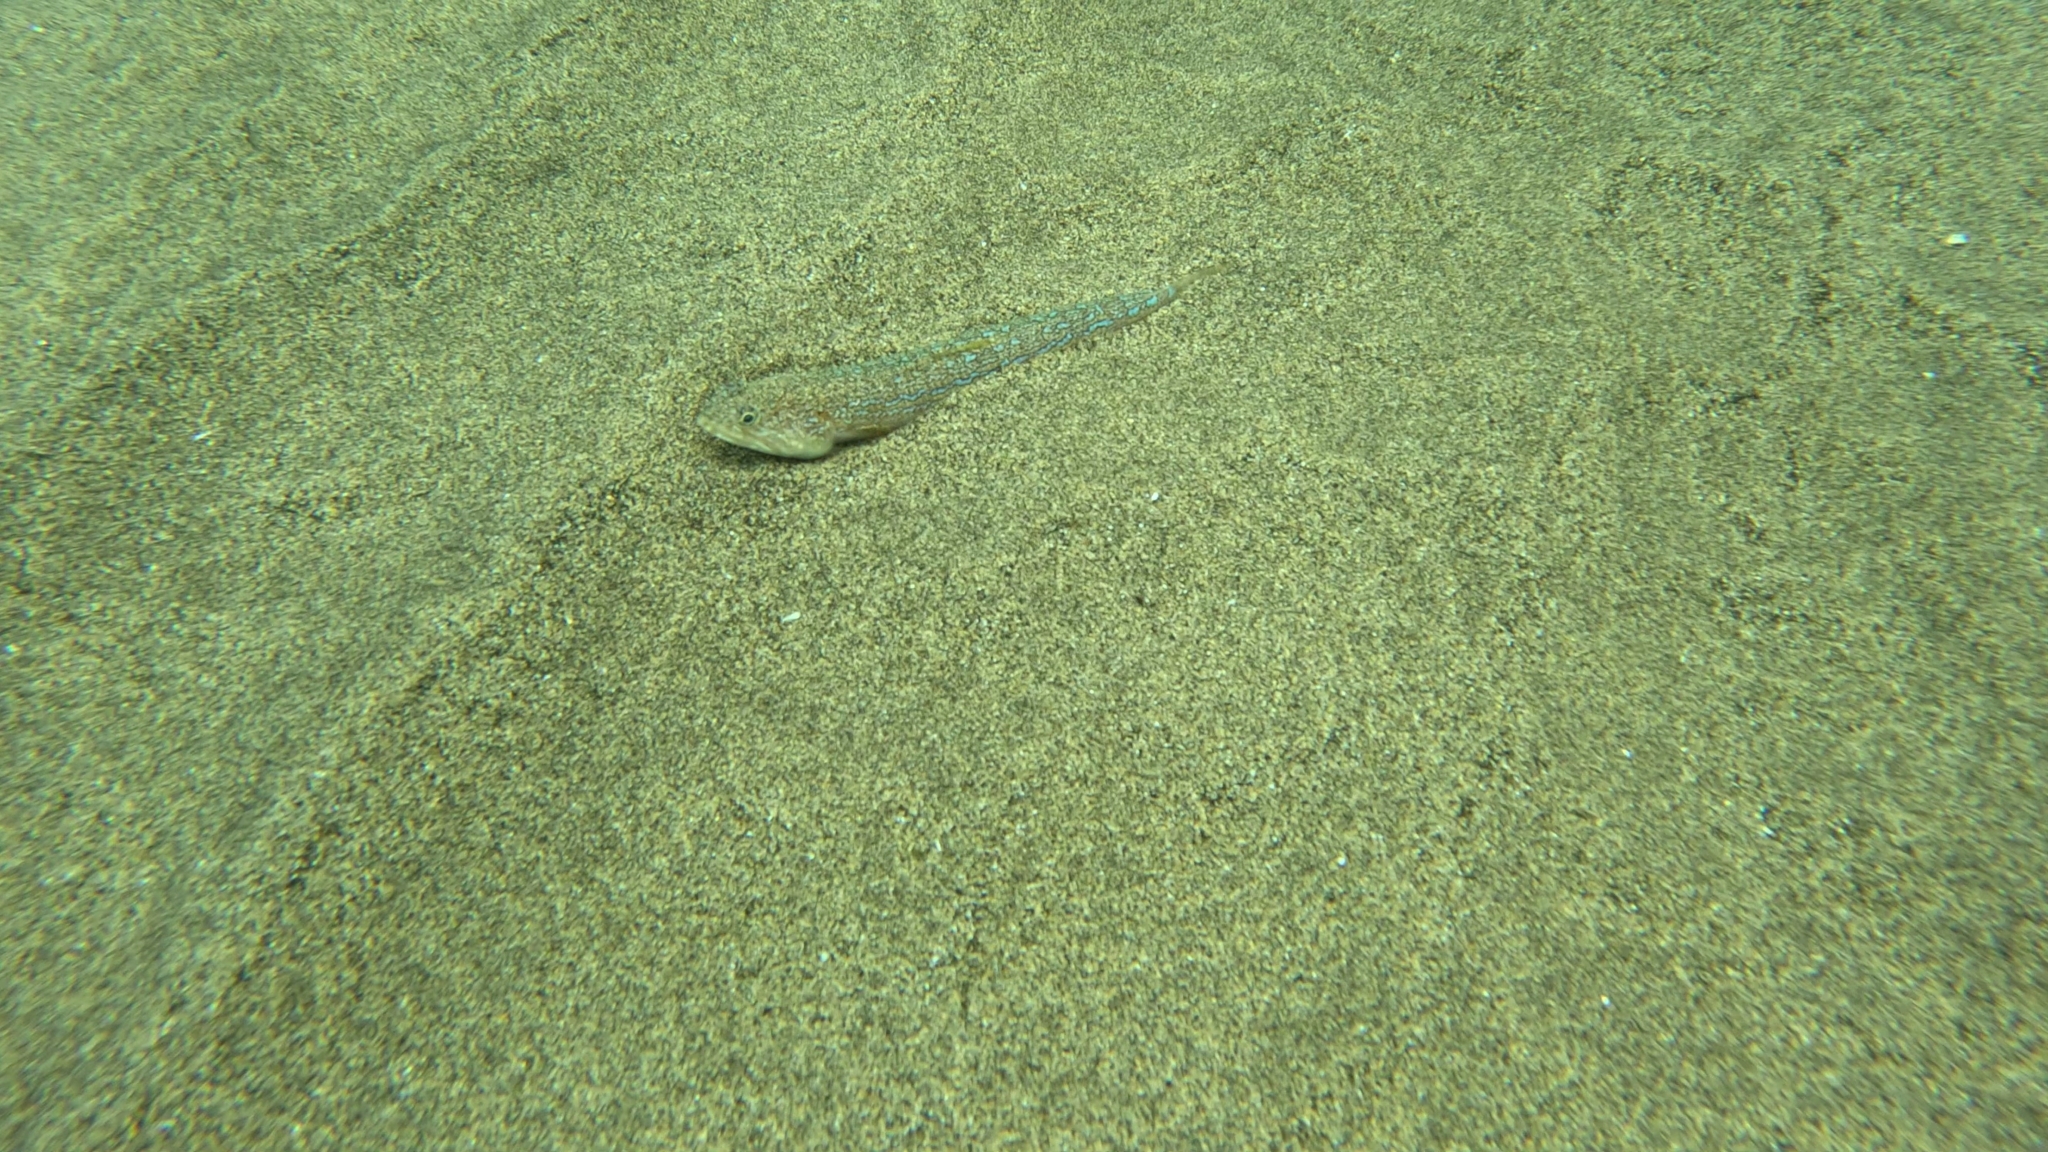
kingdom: Animalia
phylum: Chordata
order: Aulopiformes
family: Synodontidae
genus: Synodus
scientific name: Synodus saurus
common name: Atlantic lizardfish
